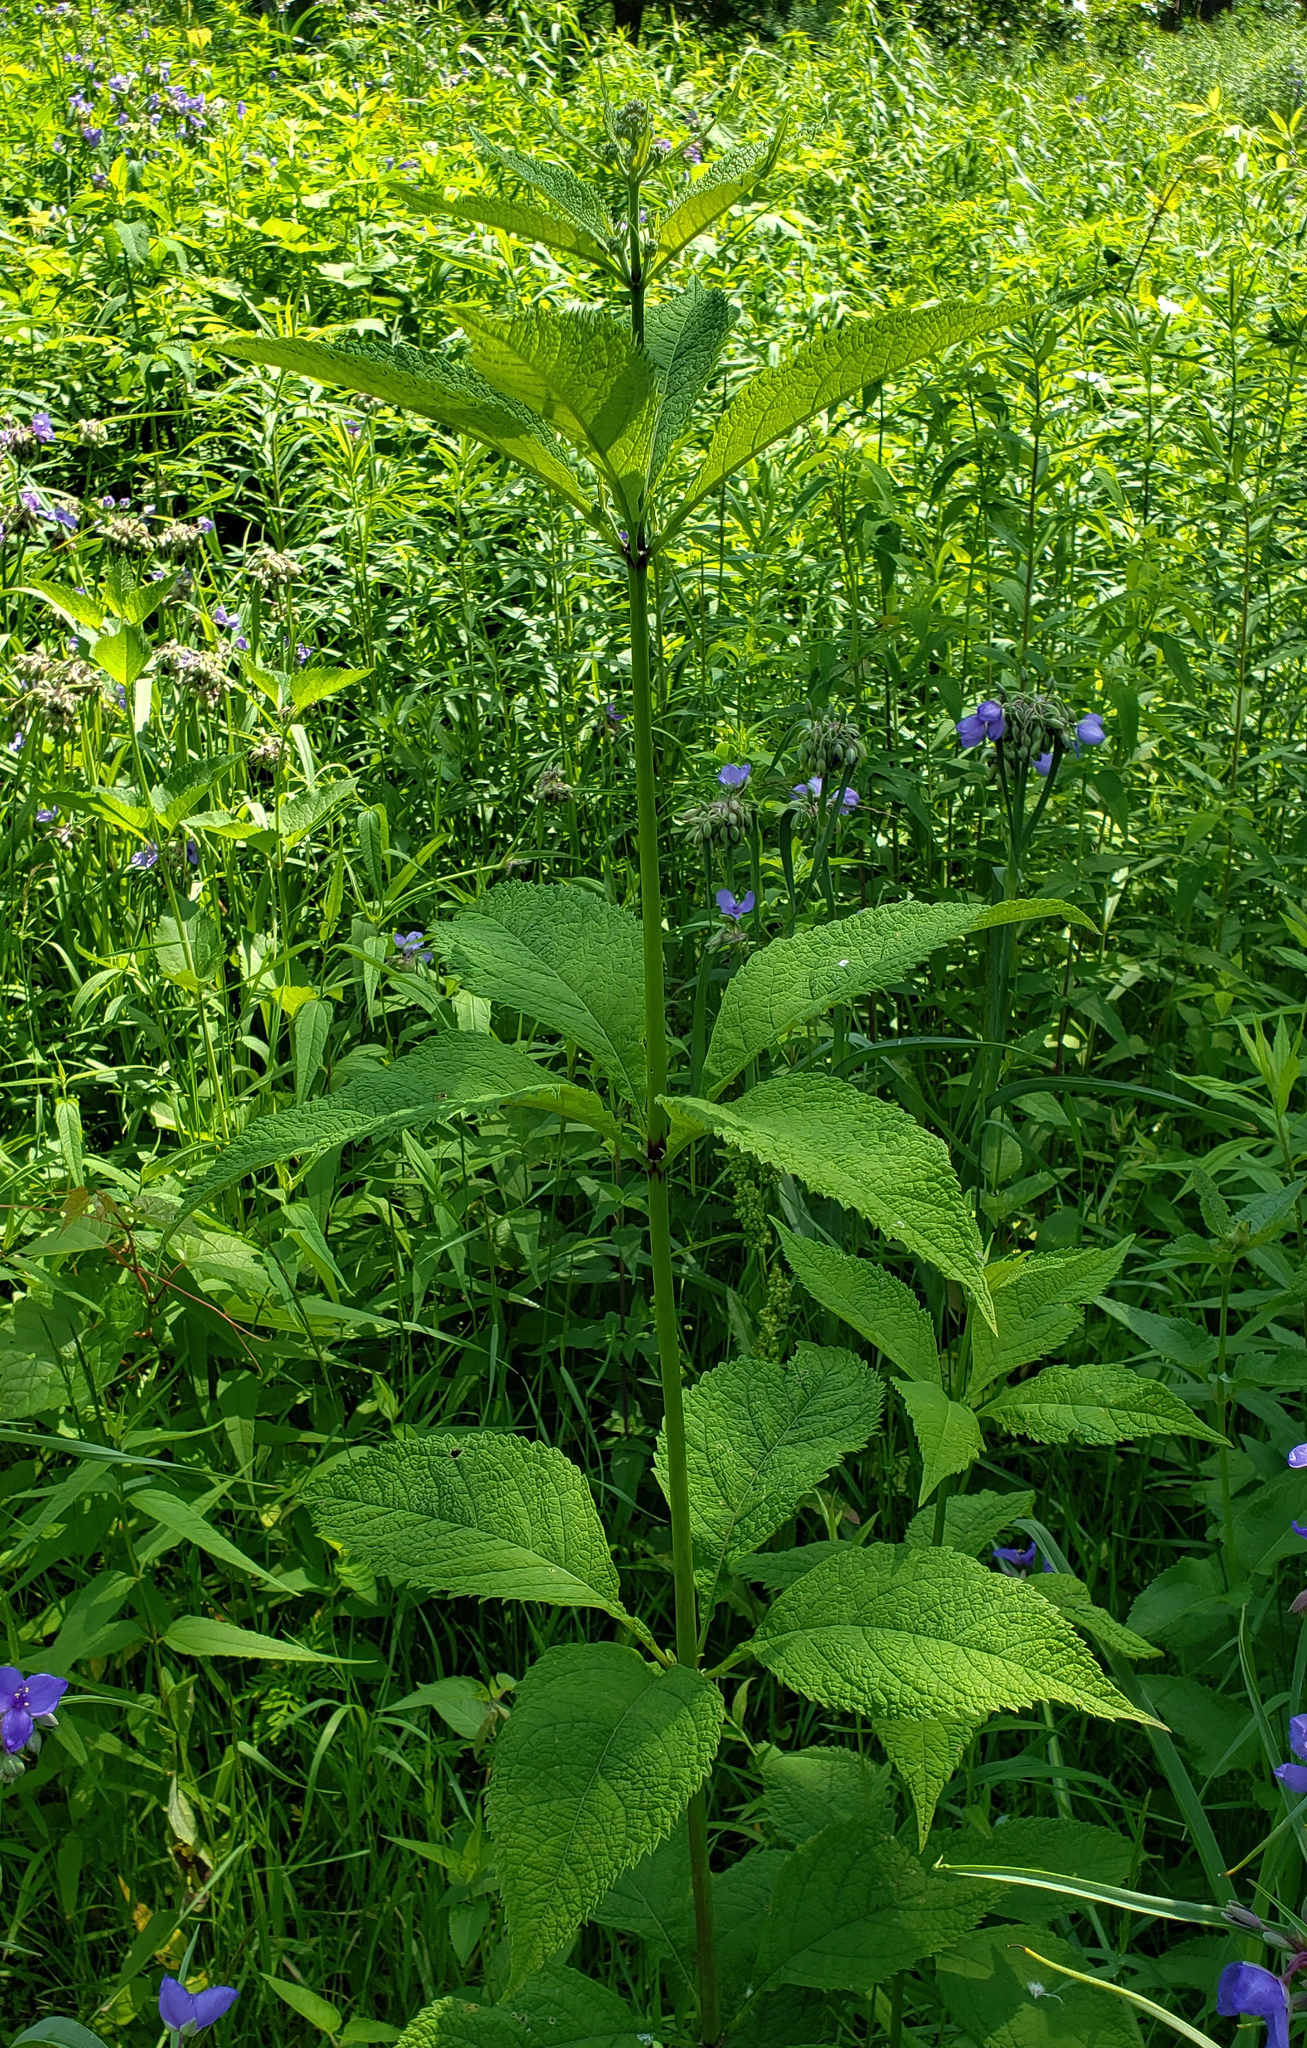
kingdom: Plantae
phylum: Tracheophyta
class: Magnoliopsida
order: Asterales
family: Asteraceae
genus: Eutrochium
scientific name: Eutrochium purpureum
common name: Gravelroot
